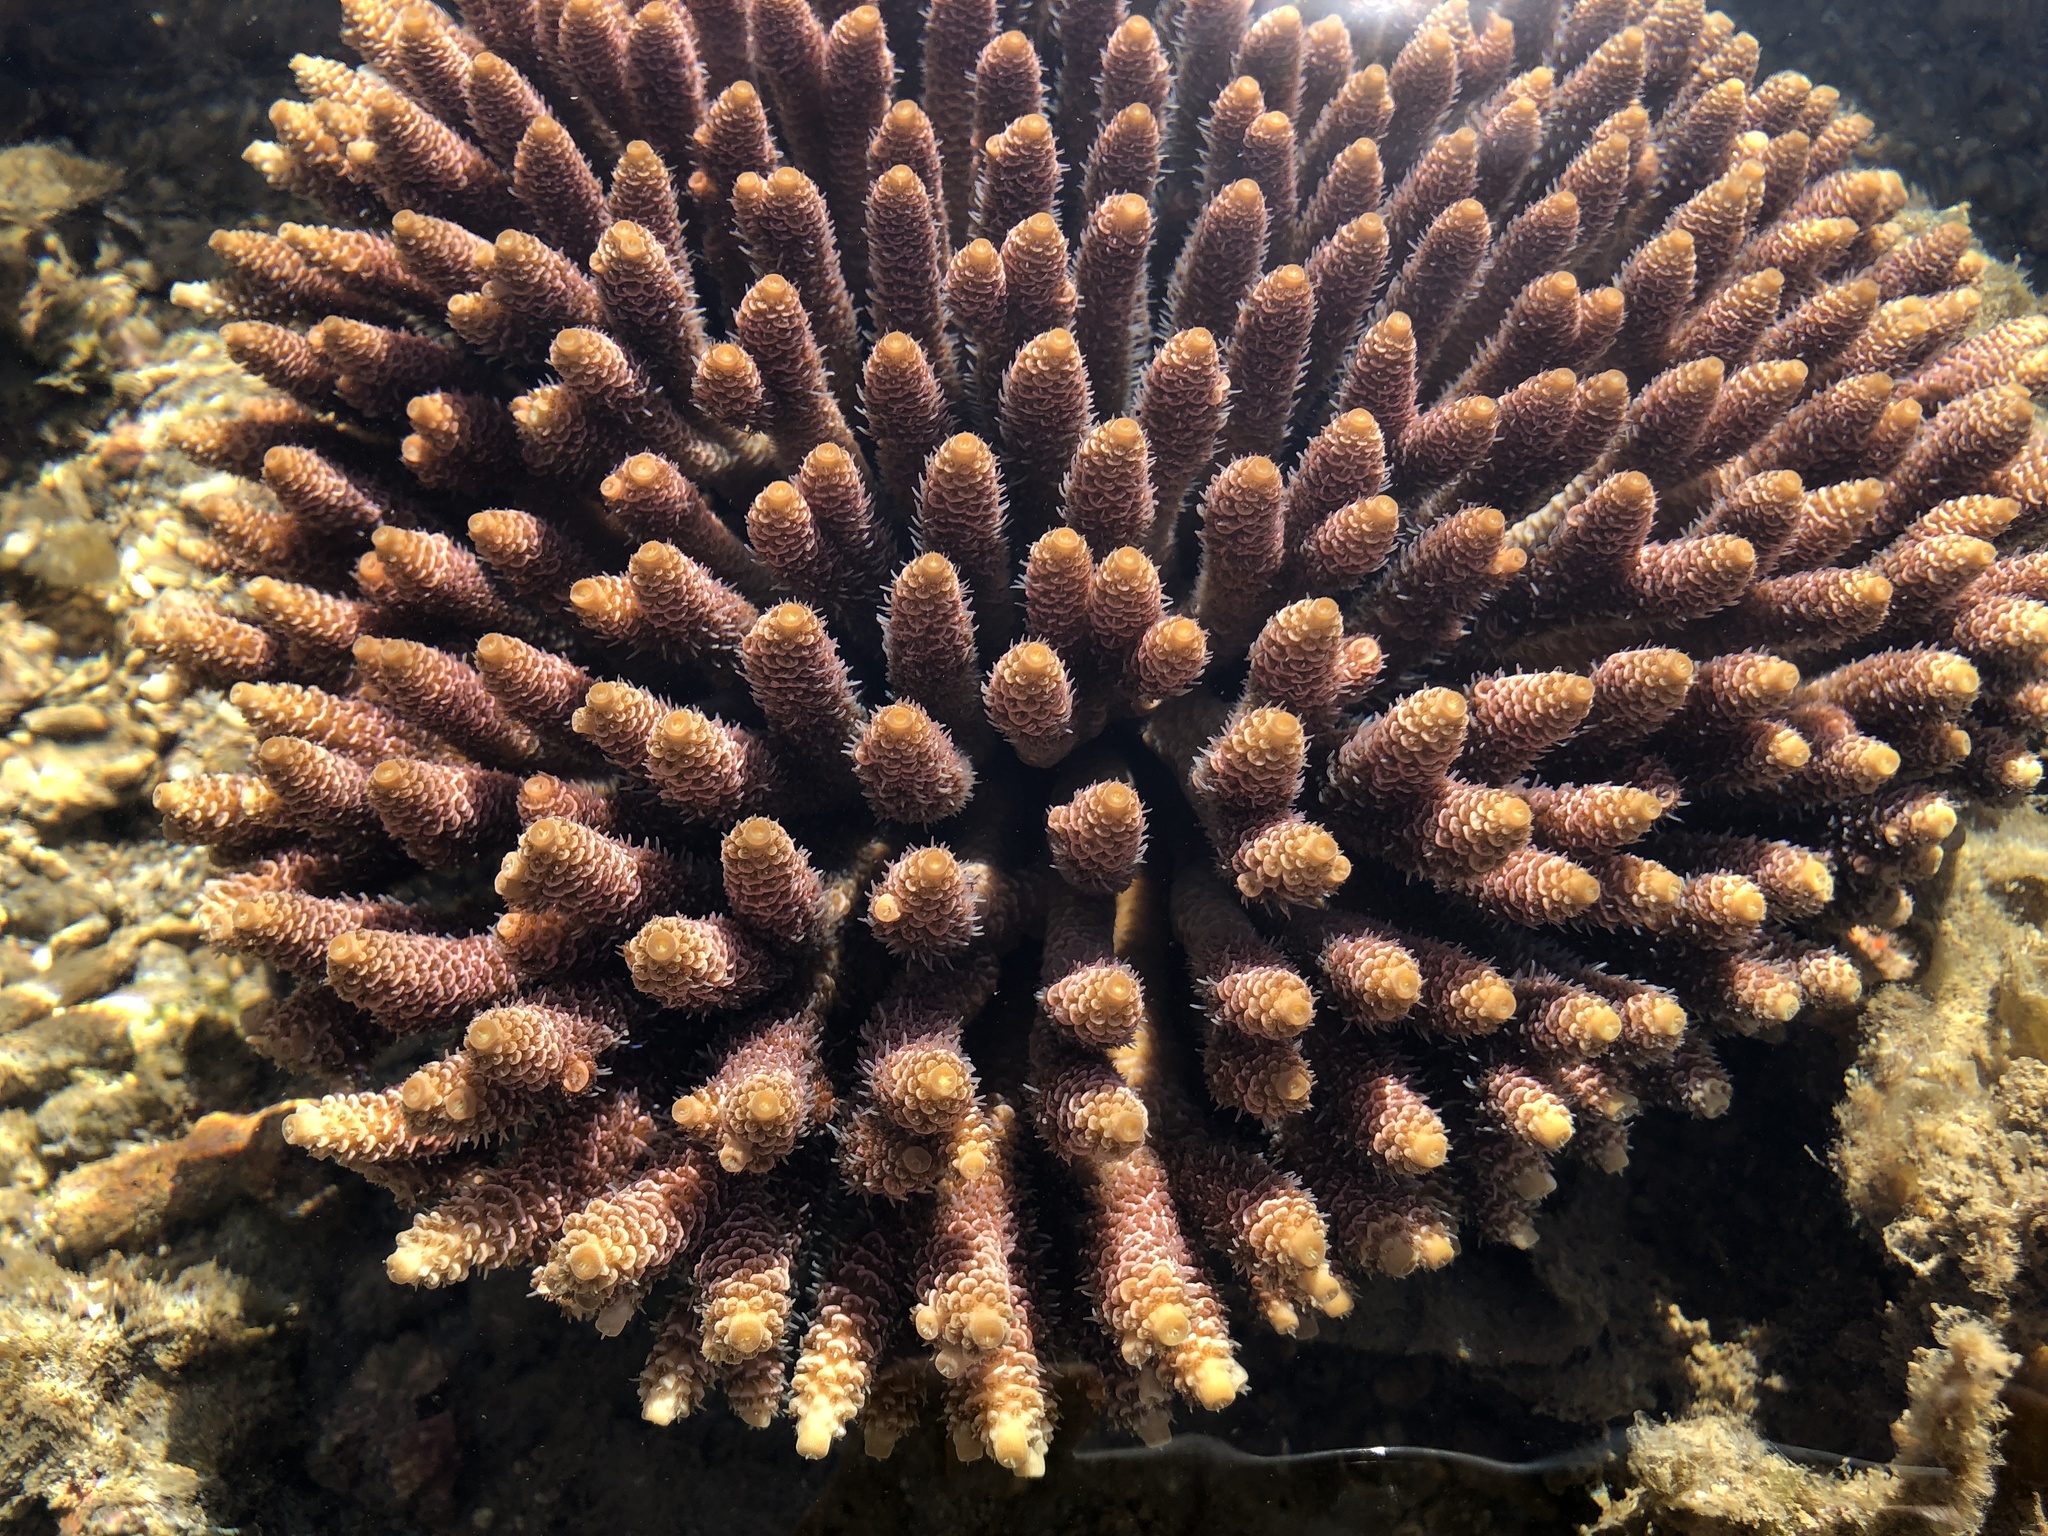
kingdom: Animalia
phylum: Cnidaria
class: Anthozoa
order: Scleractinia
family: Acroporidae
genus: Acropora
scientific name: Acropora millepora
